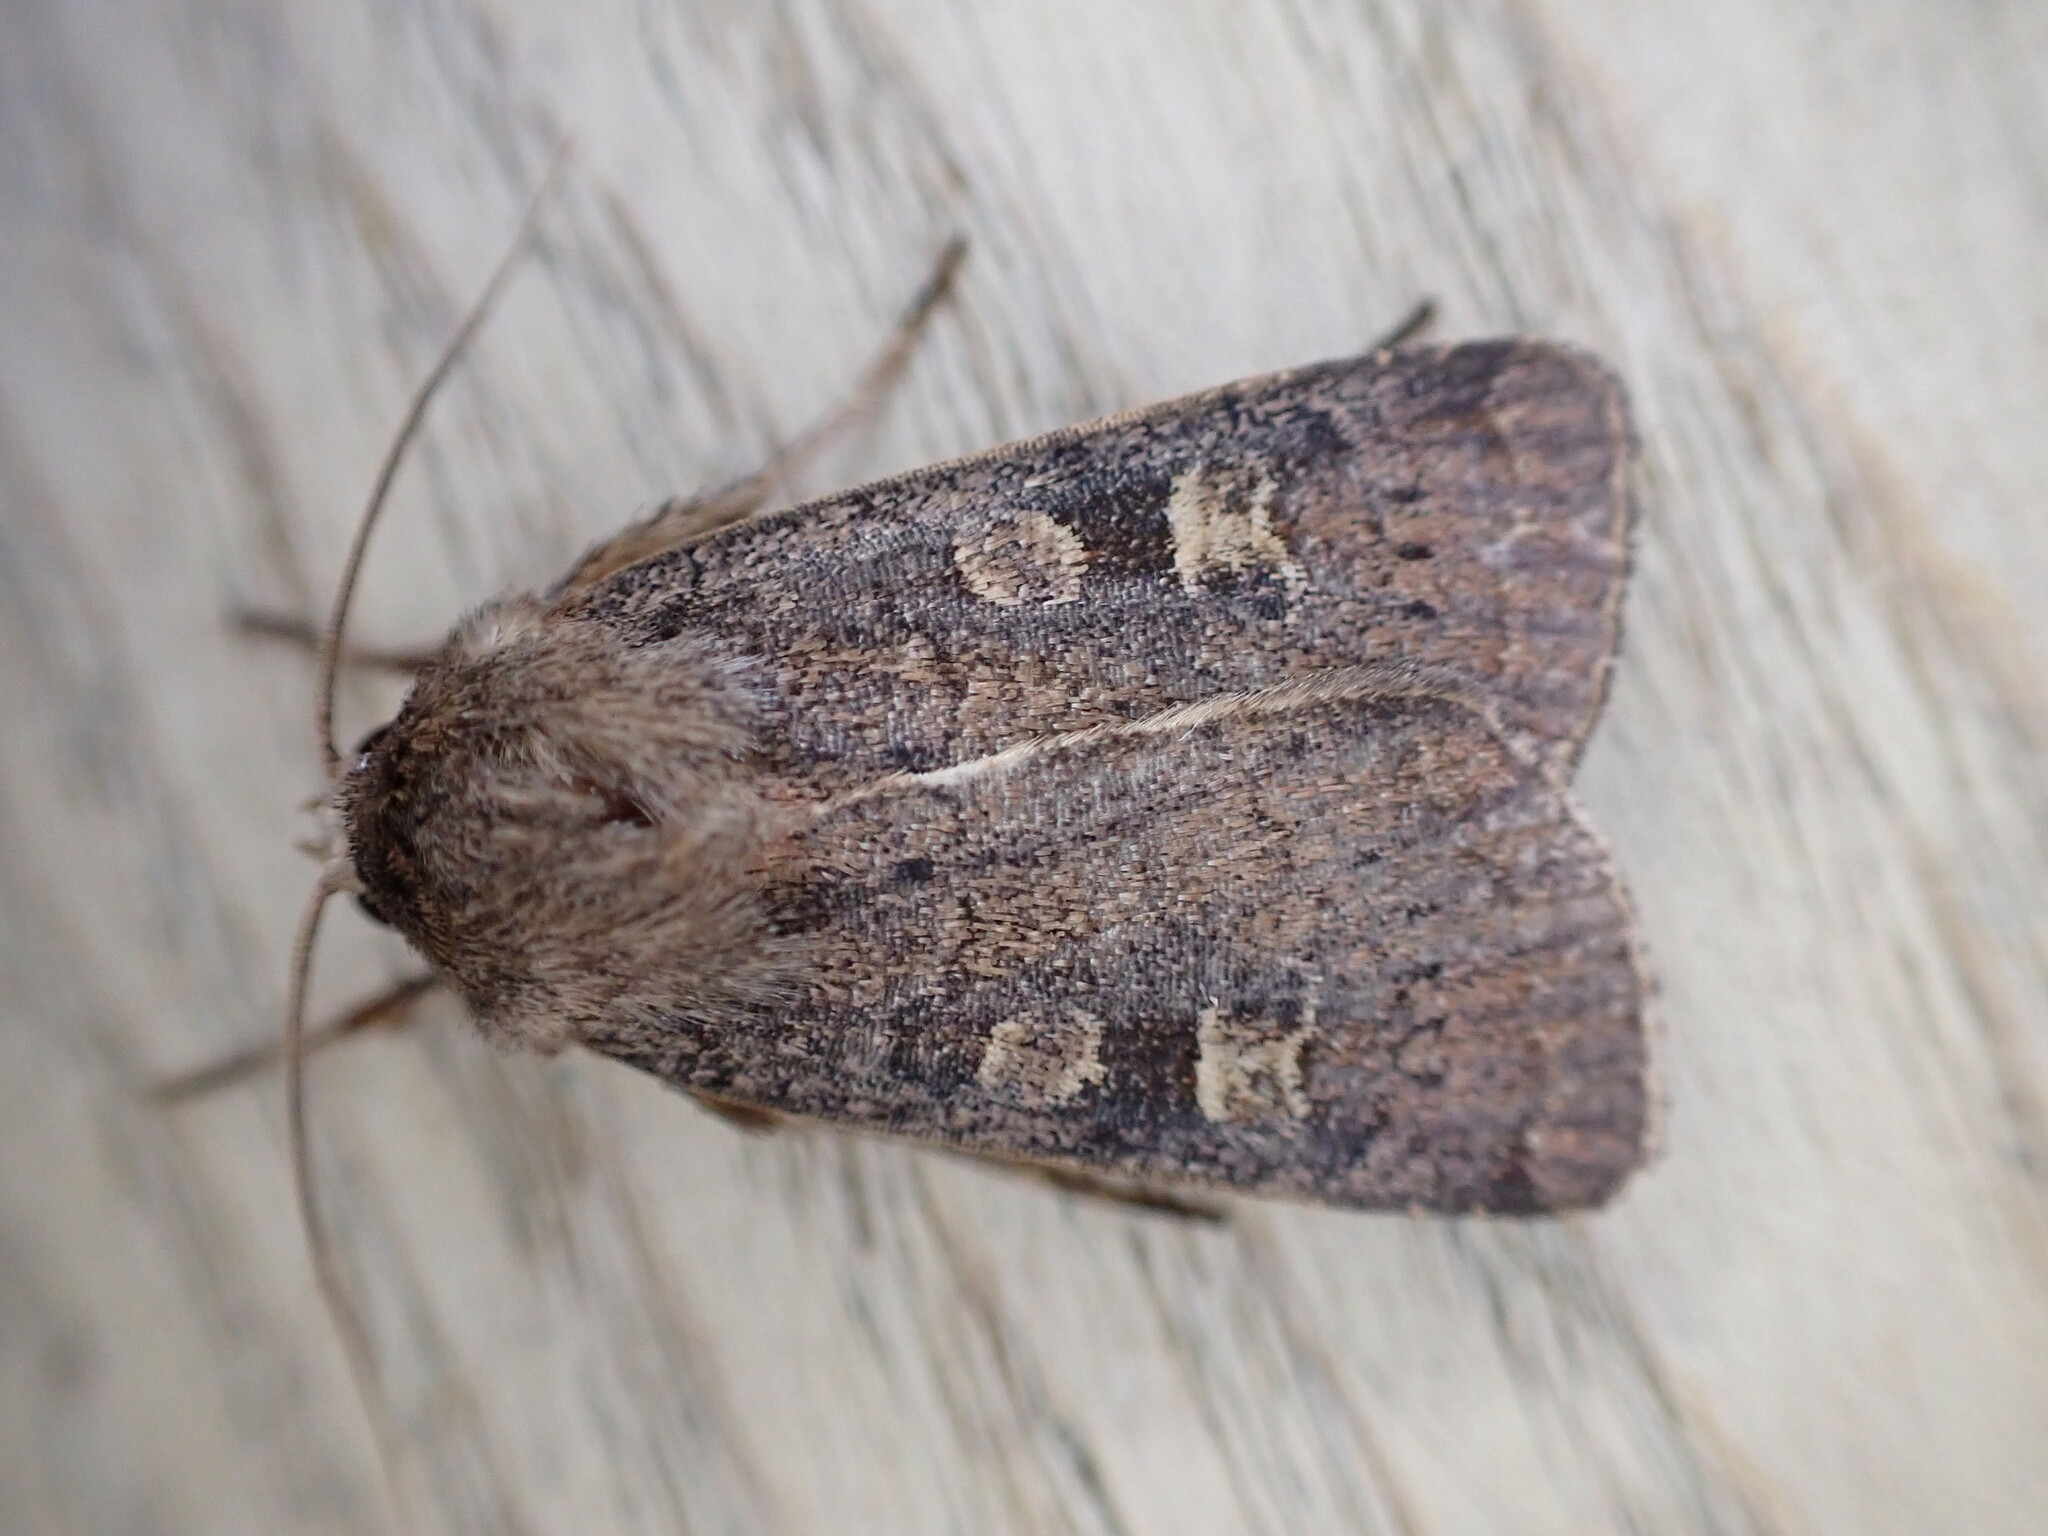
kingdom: Animalia
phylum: Arthropoda
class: Insecta
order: Lepidoptera
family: Noctuidae
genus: Xestia
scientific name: Xestia xanthographa
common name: Square-spot rustic
